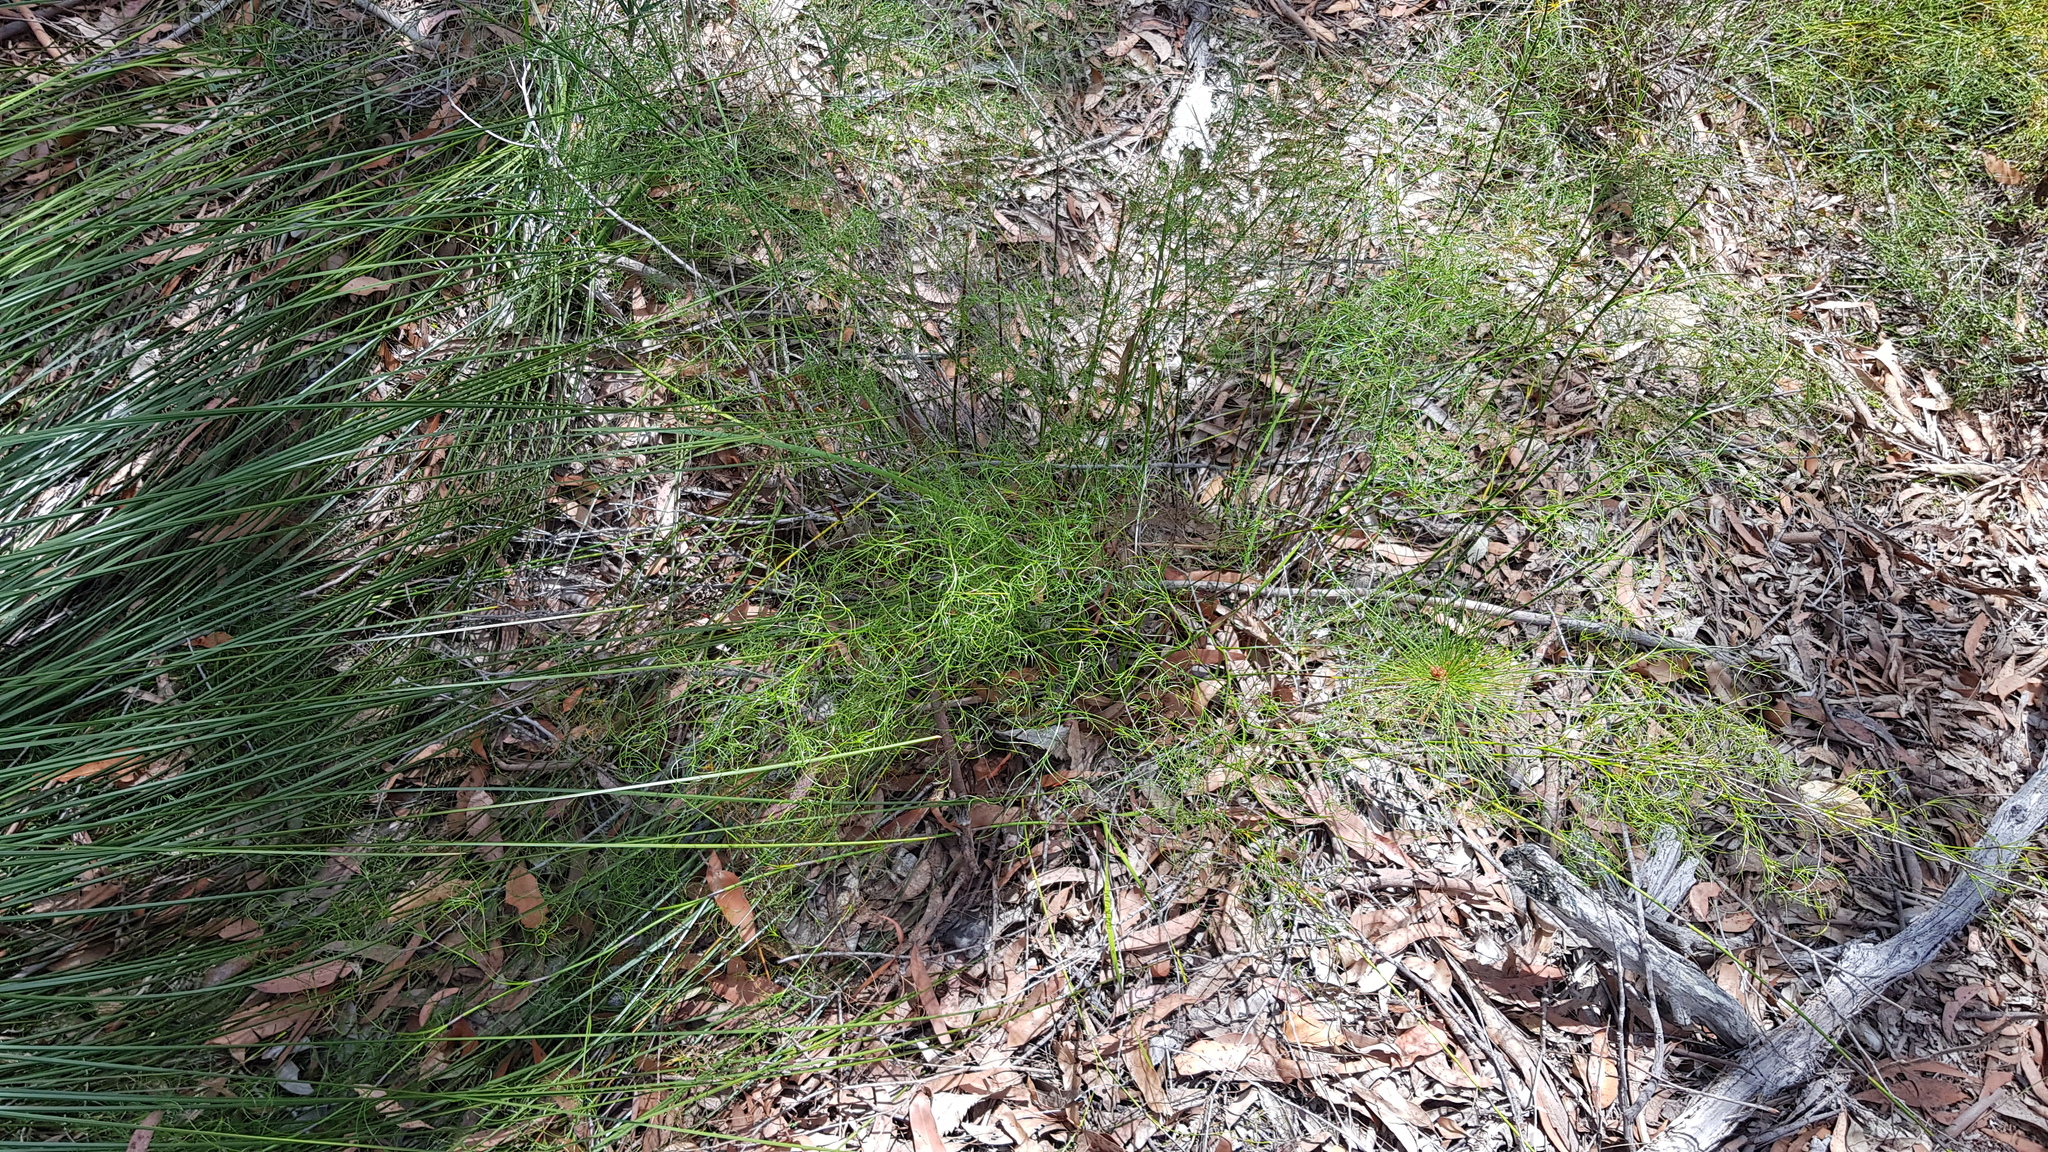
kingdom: Plantae
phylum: Tracheophyta
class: Liliopsida
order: Poales
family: Cyperaceae
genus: Caustis
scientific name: Caustis flexuosa
